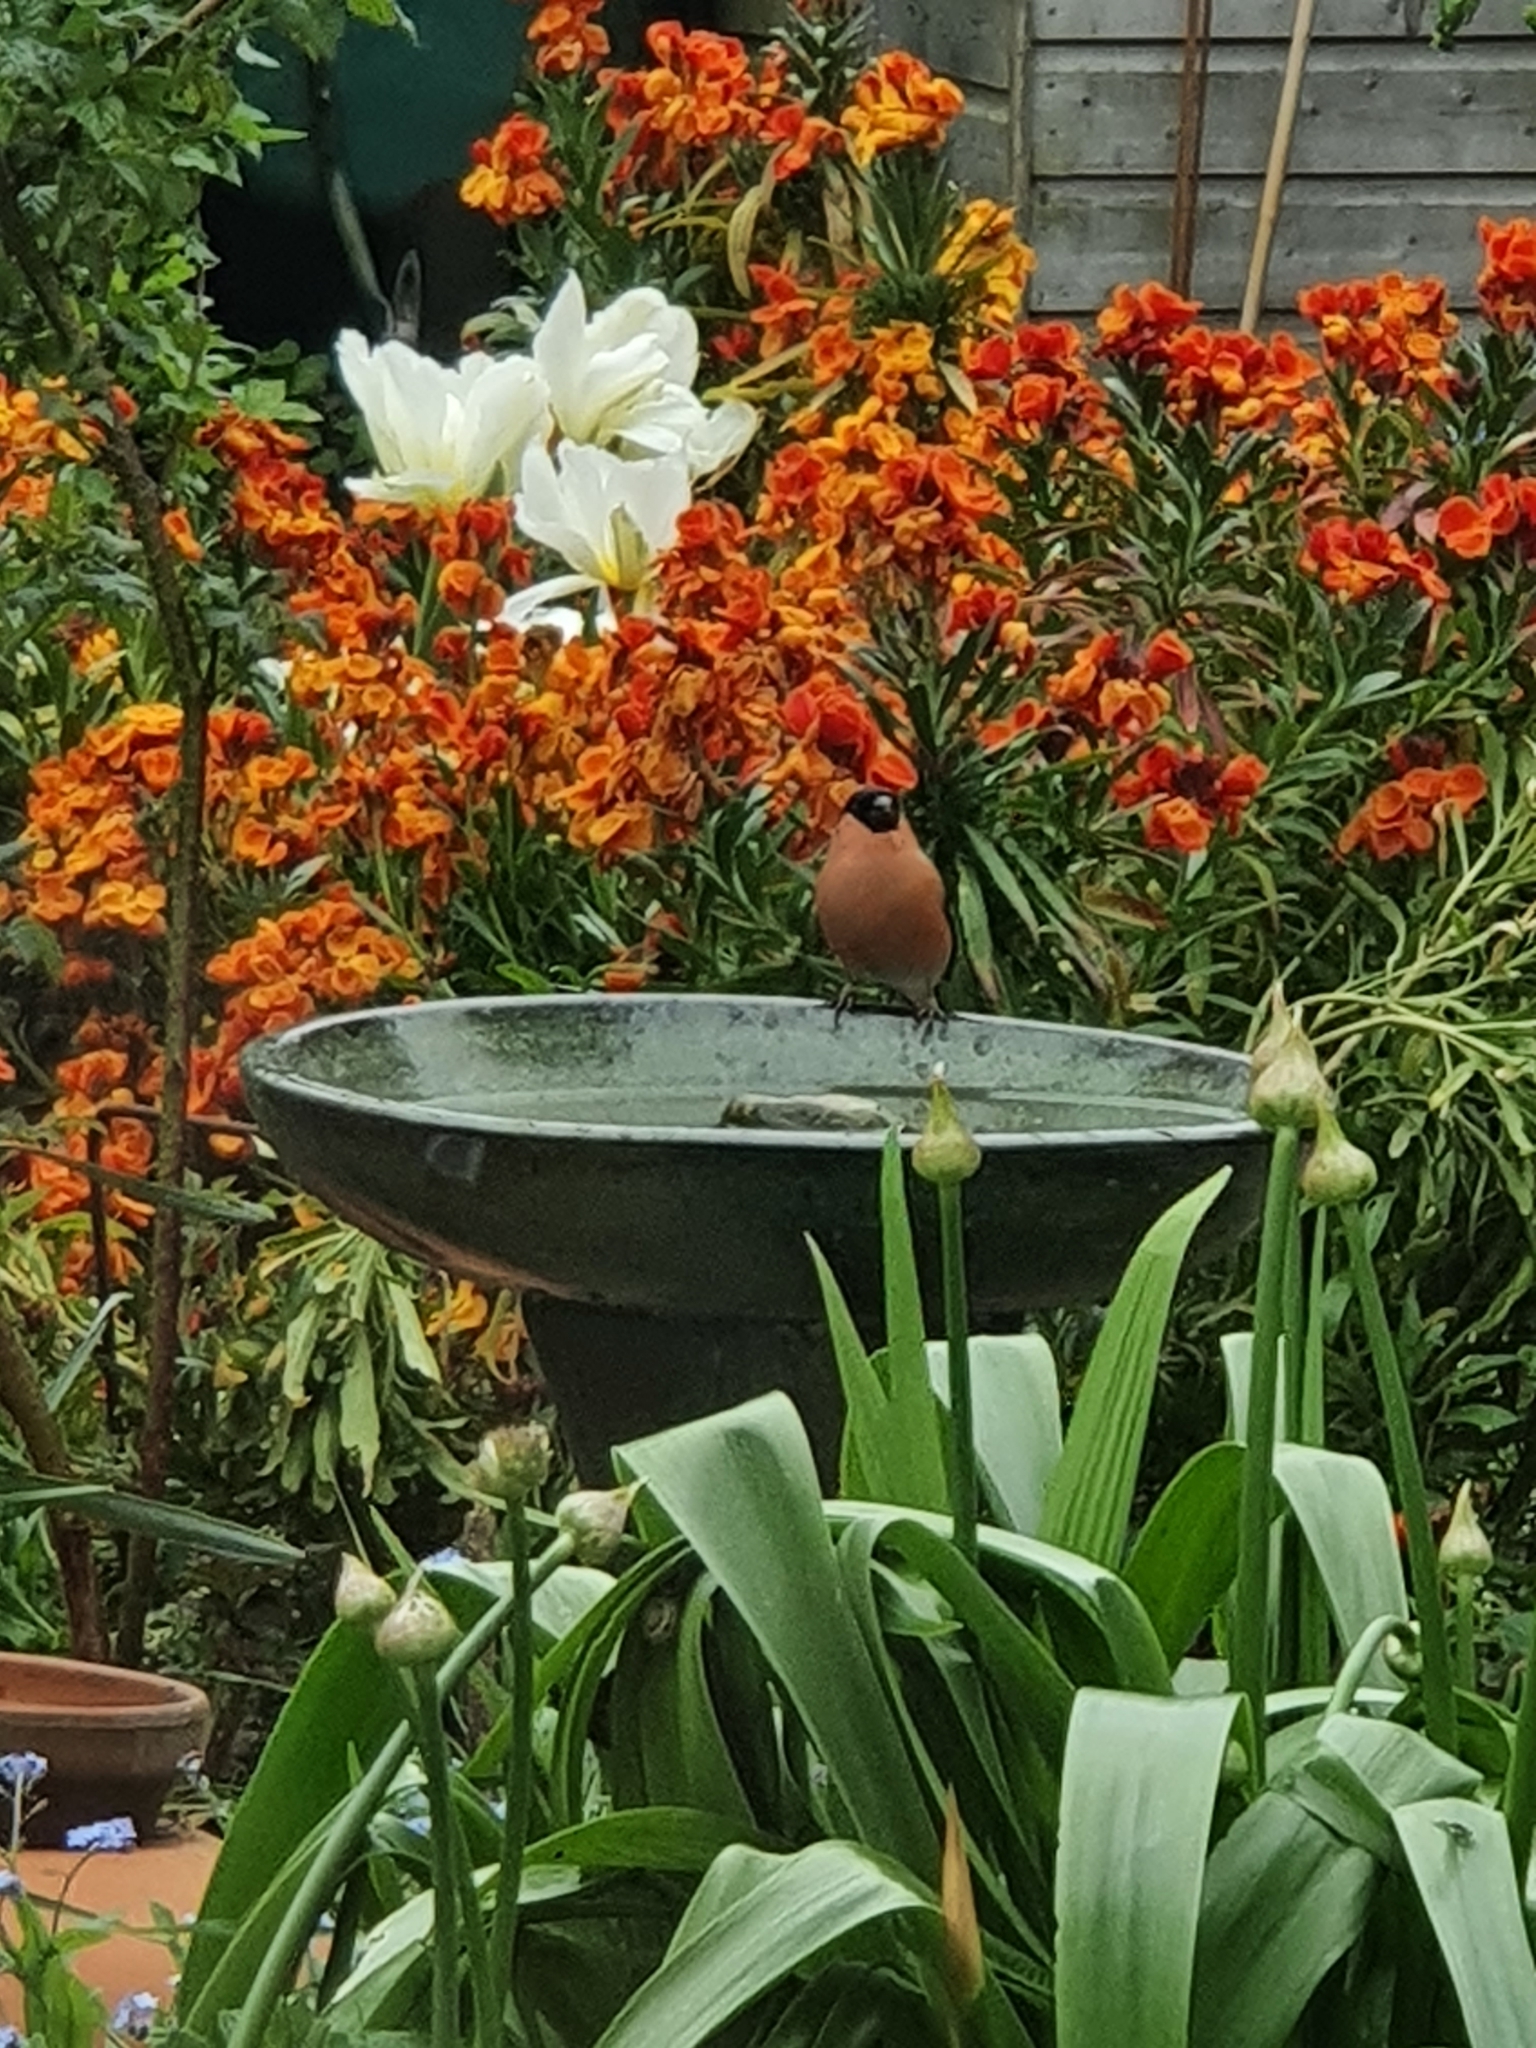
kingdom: Animalia
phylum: Chordata
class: Aves
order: Passeriformes
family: Fringillidae
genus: Pyrrhula
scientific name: Pyrrhula pyrrhula
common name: Eurasian bullfinch
